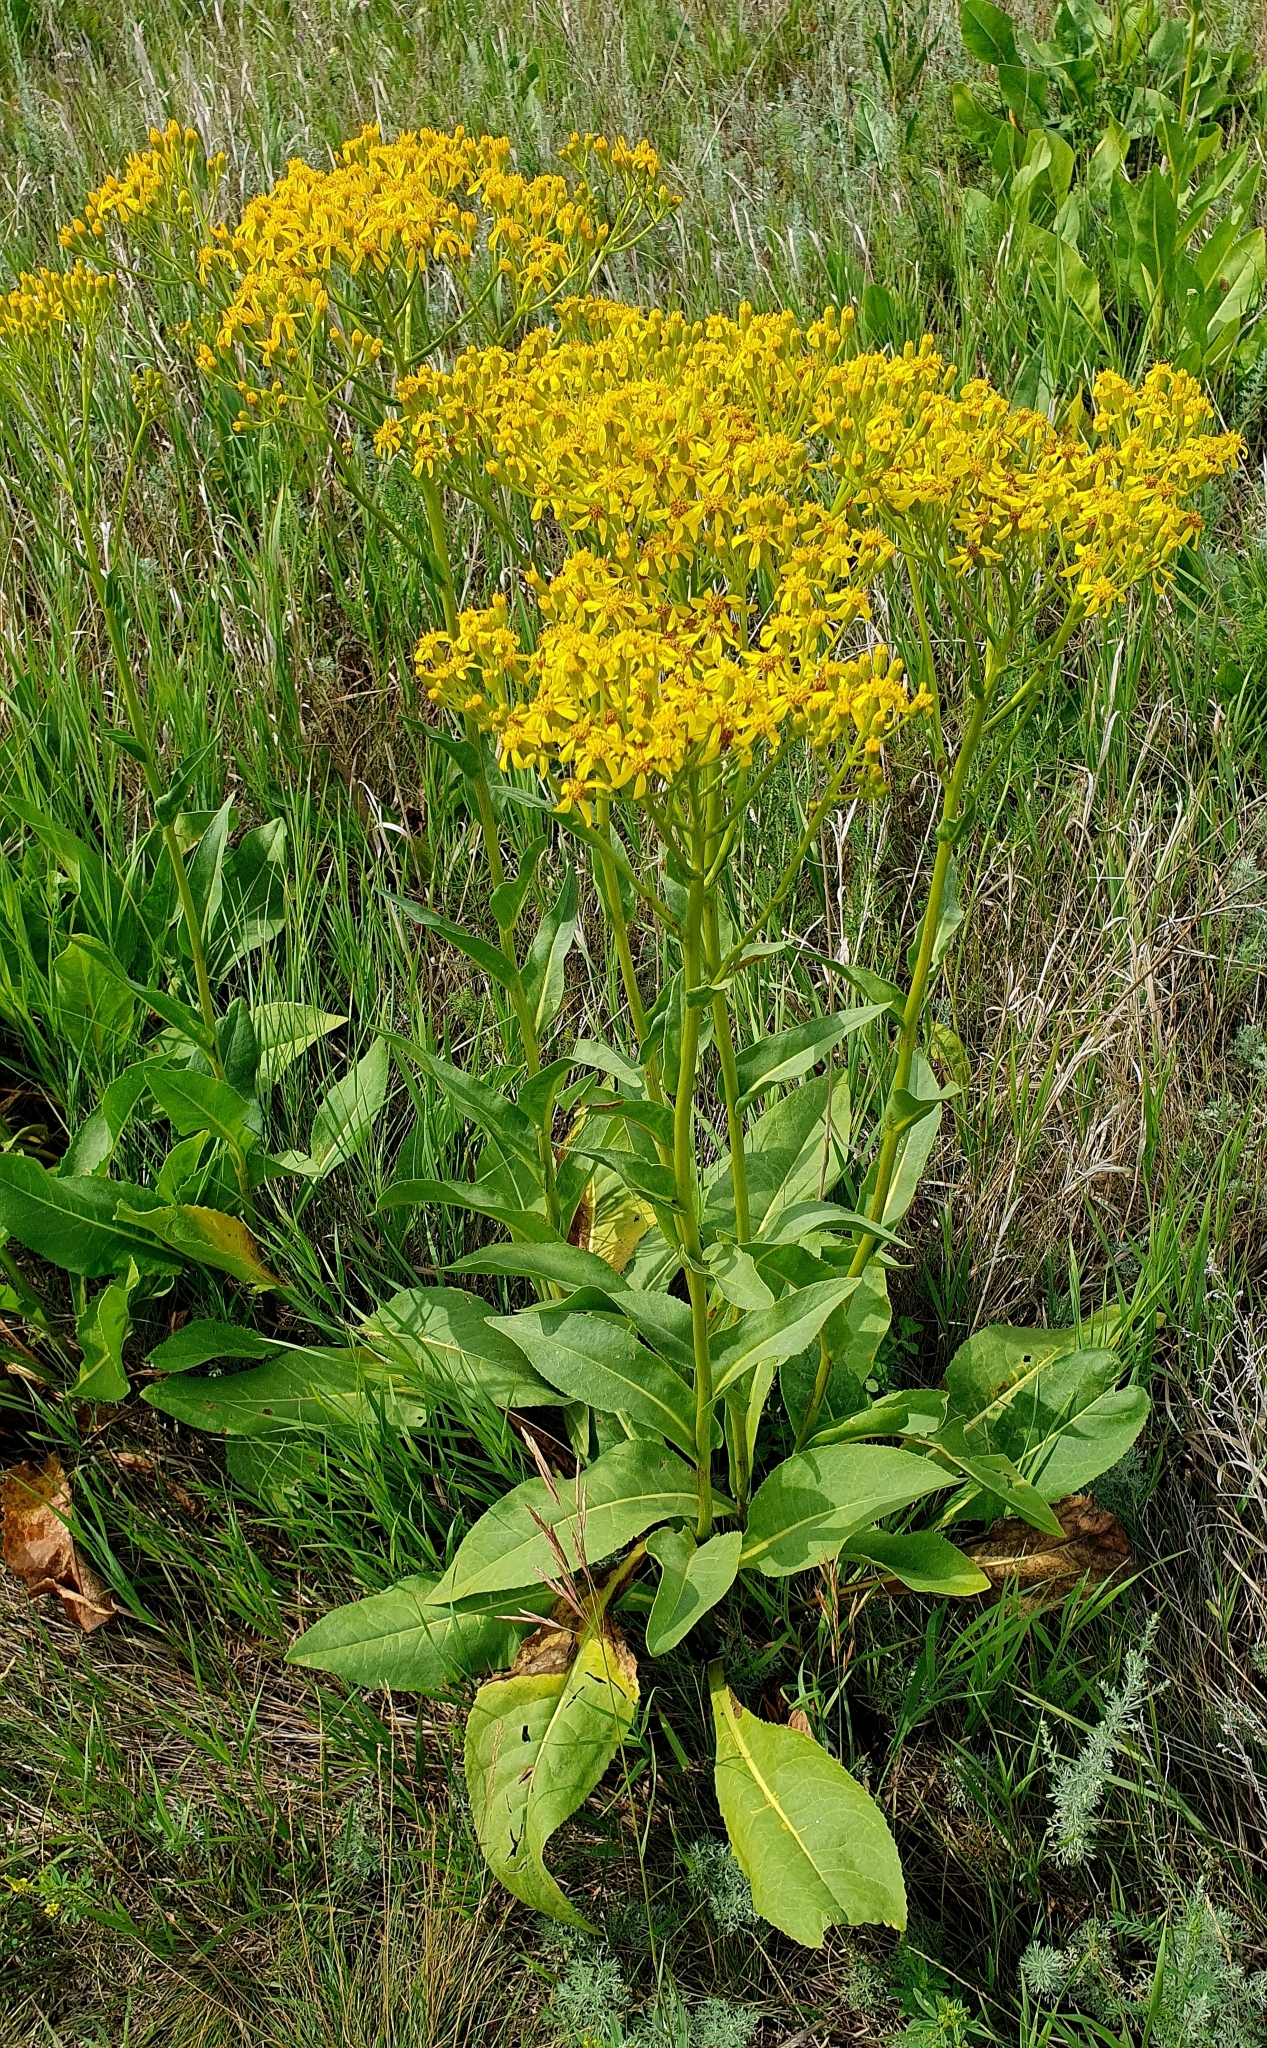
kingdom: Plantae
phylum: Tracheophyta
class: Magnoliopsida
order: Asterales
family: Asteraceae
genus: Senecio
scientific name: Senecio doria
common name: Golden ragwort
